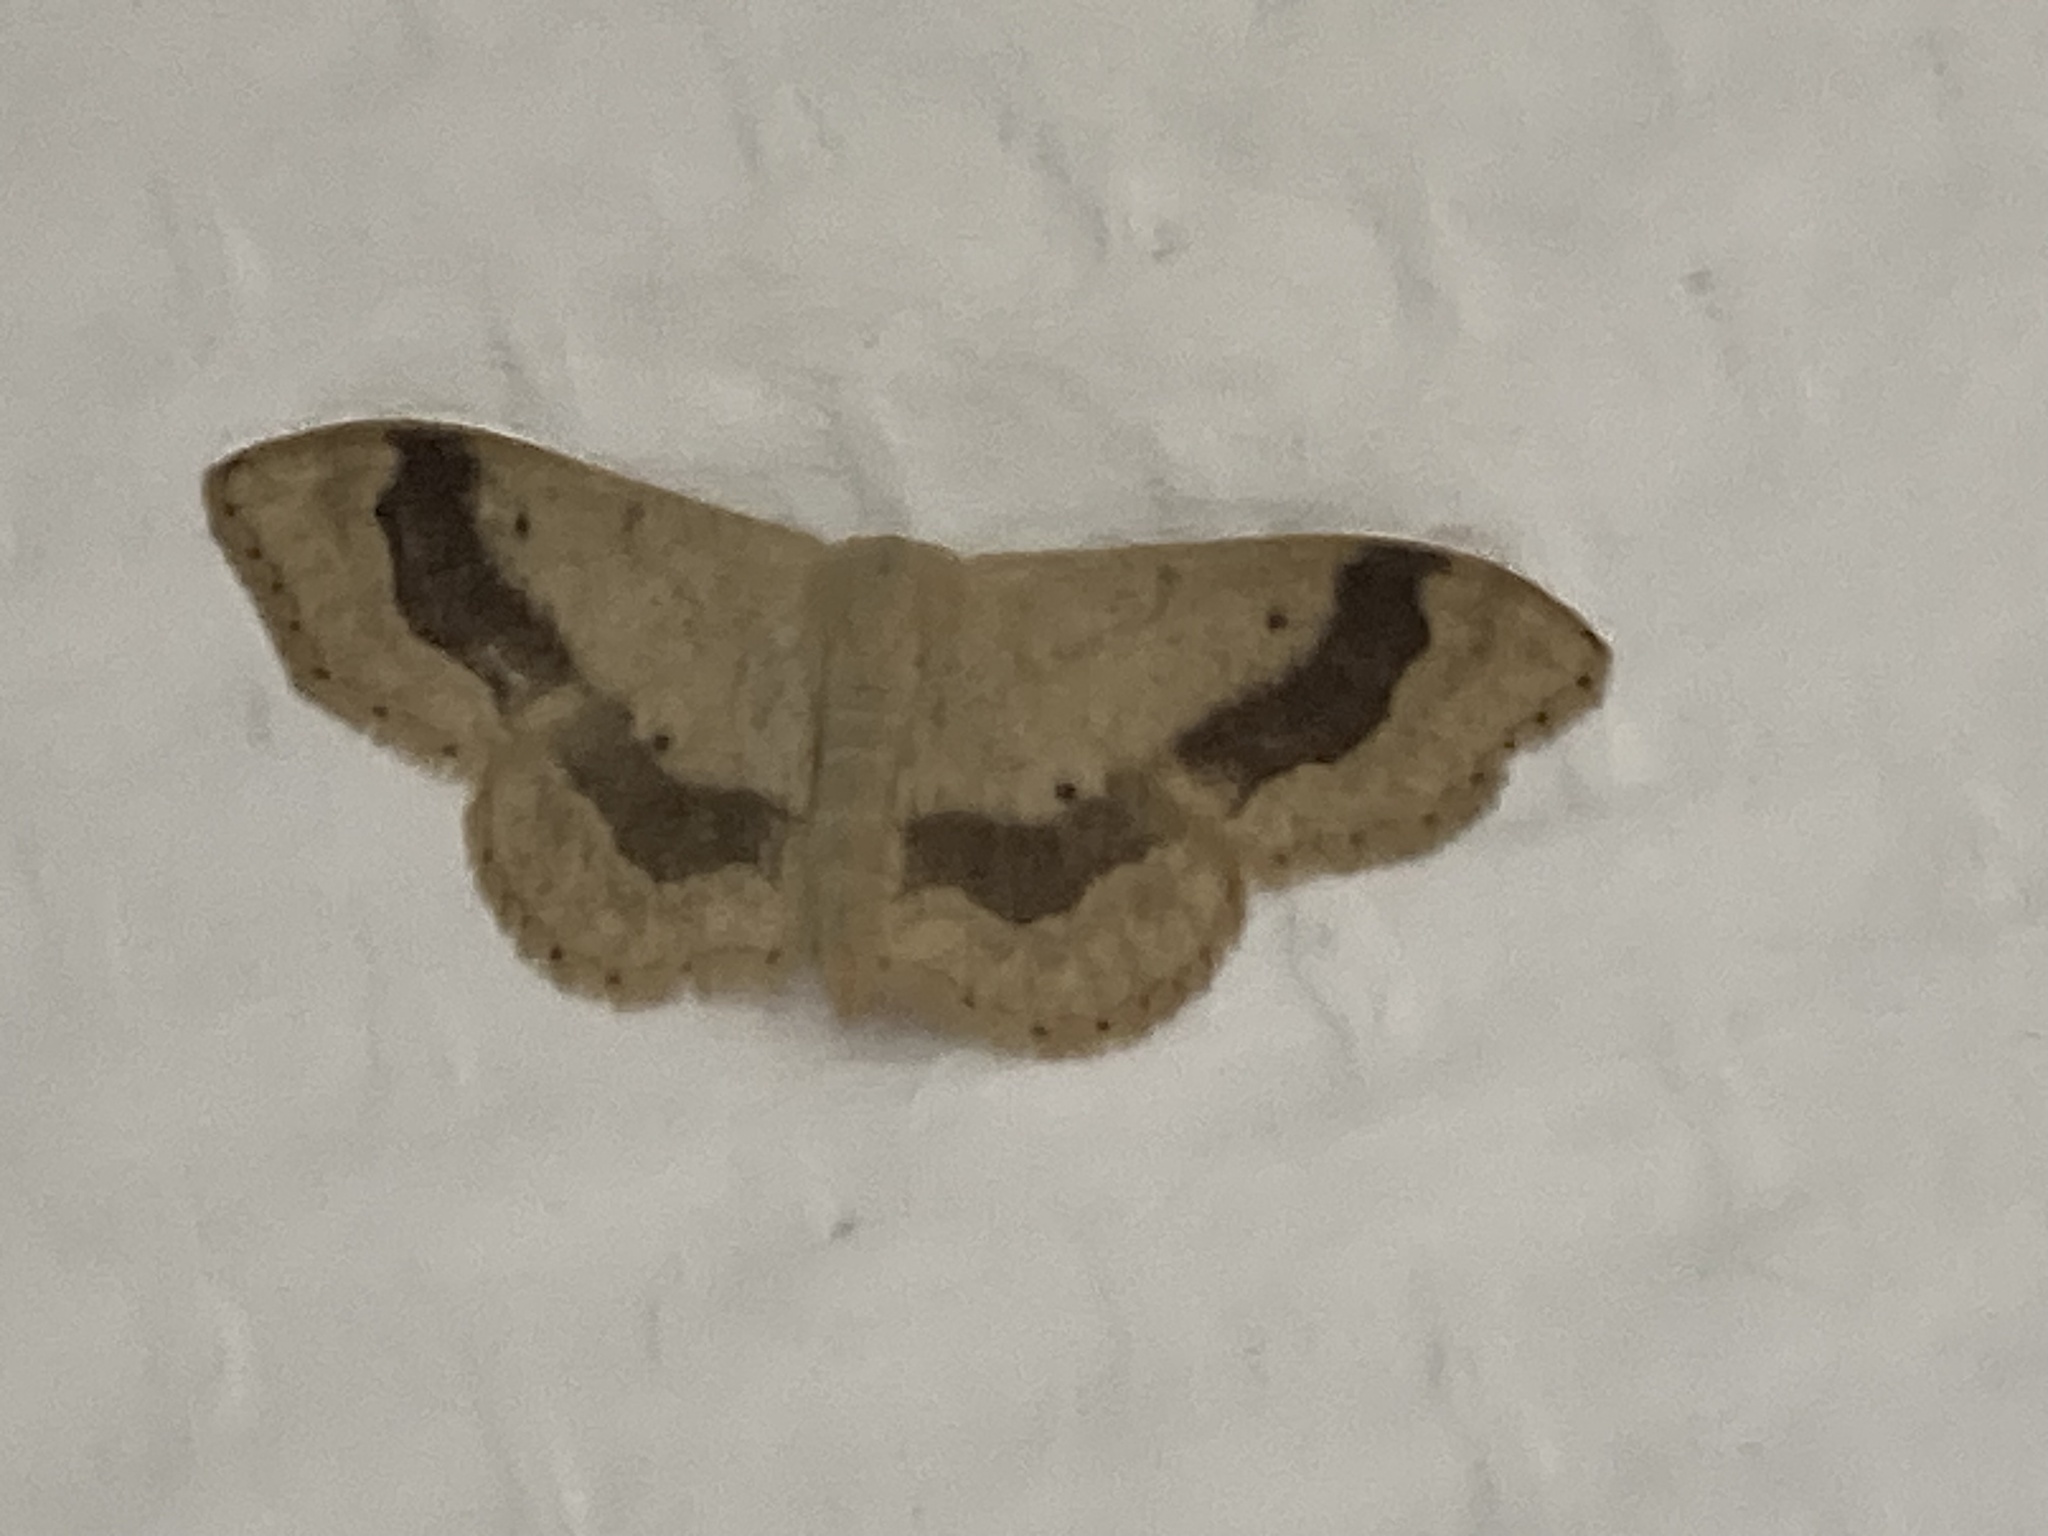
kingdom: Animalia
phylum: Arthropoda
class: Insecta
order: Lepidoptera
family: Geometridae
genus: Idaea
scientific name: Idaea aversata
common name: Riband wave
